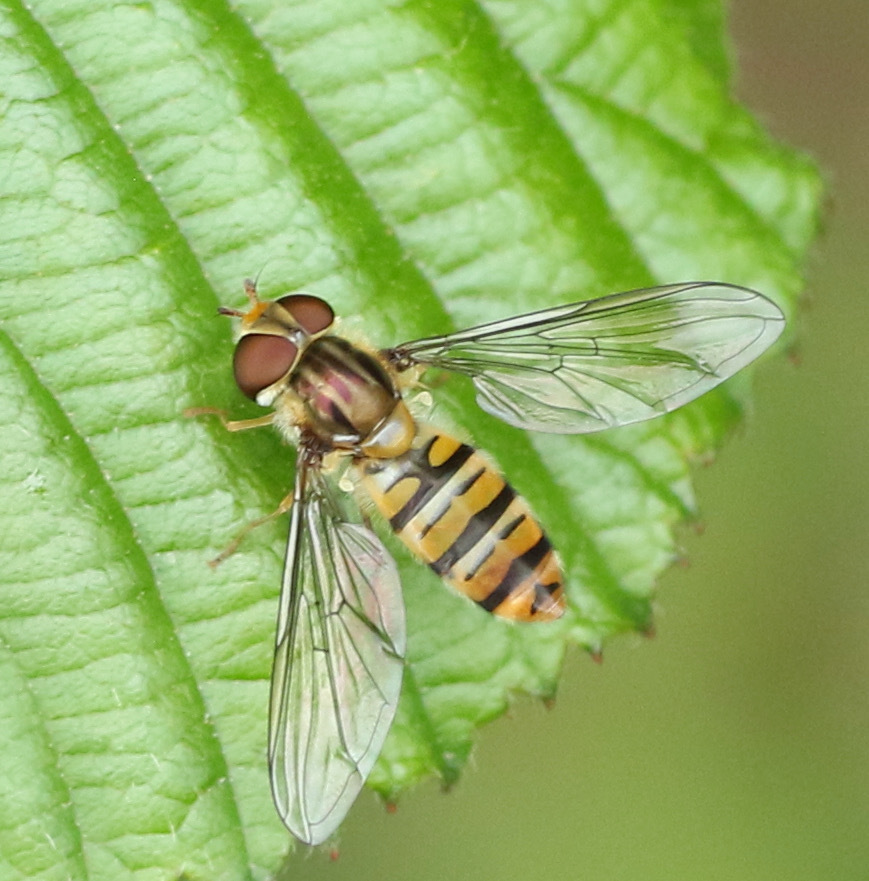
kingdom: Animalia
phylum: Arthropoda
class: Insecta
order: Diptera
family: Syrphidae
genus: Episyrphus
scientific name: Episyrphus balteatus
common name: Marmalade hoverfly
